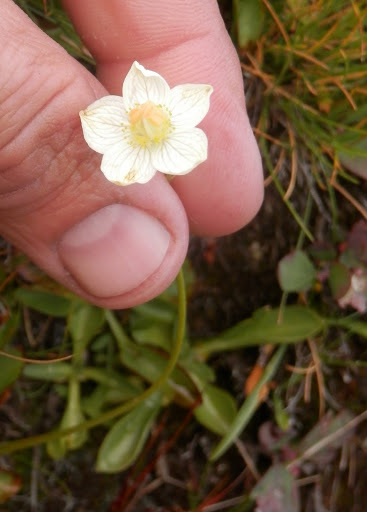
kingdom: Plantae
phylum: Tracheophyta
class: Magnoliopsida
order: Celastrales
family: Parnassiaceae
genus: Parnassia
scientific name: Parnassia palustris
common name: Grass-of-parnassus
